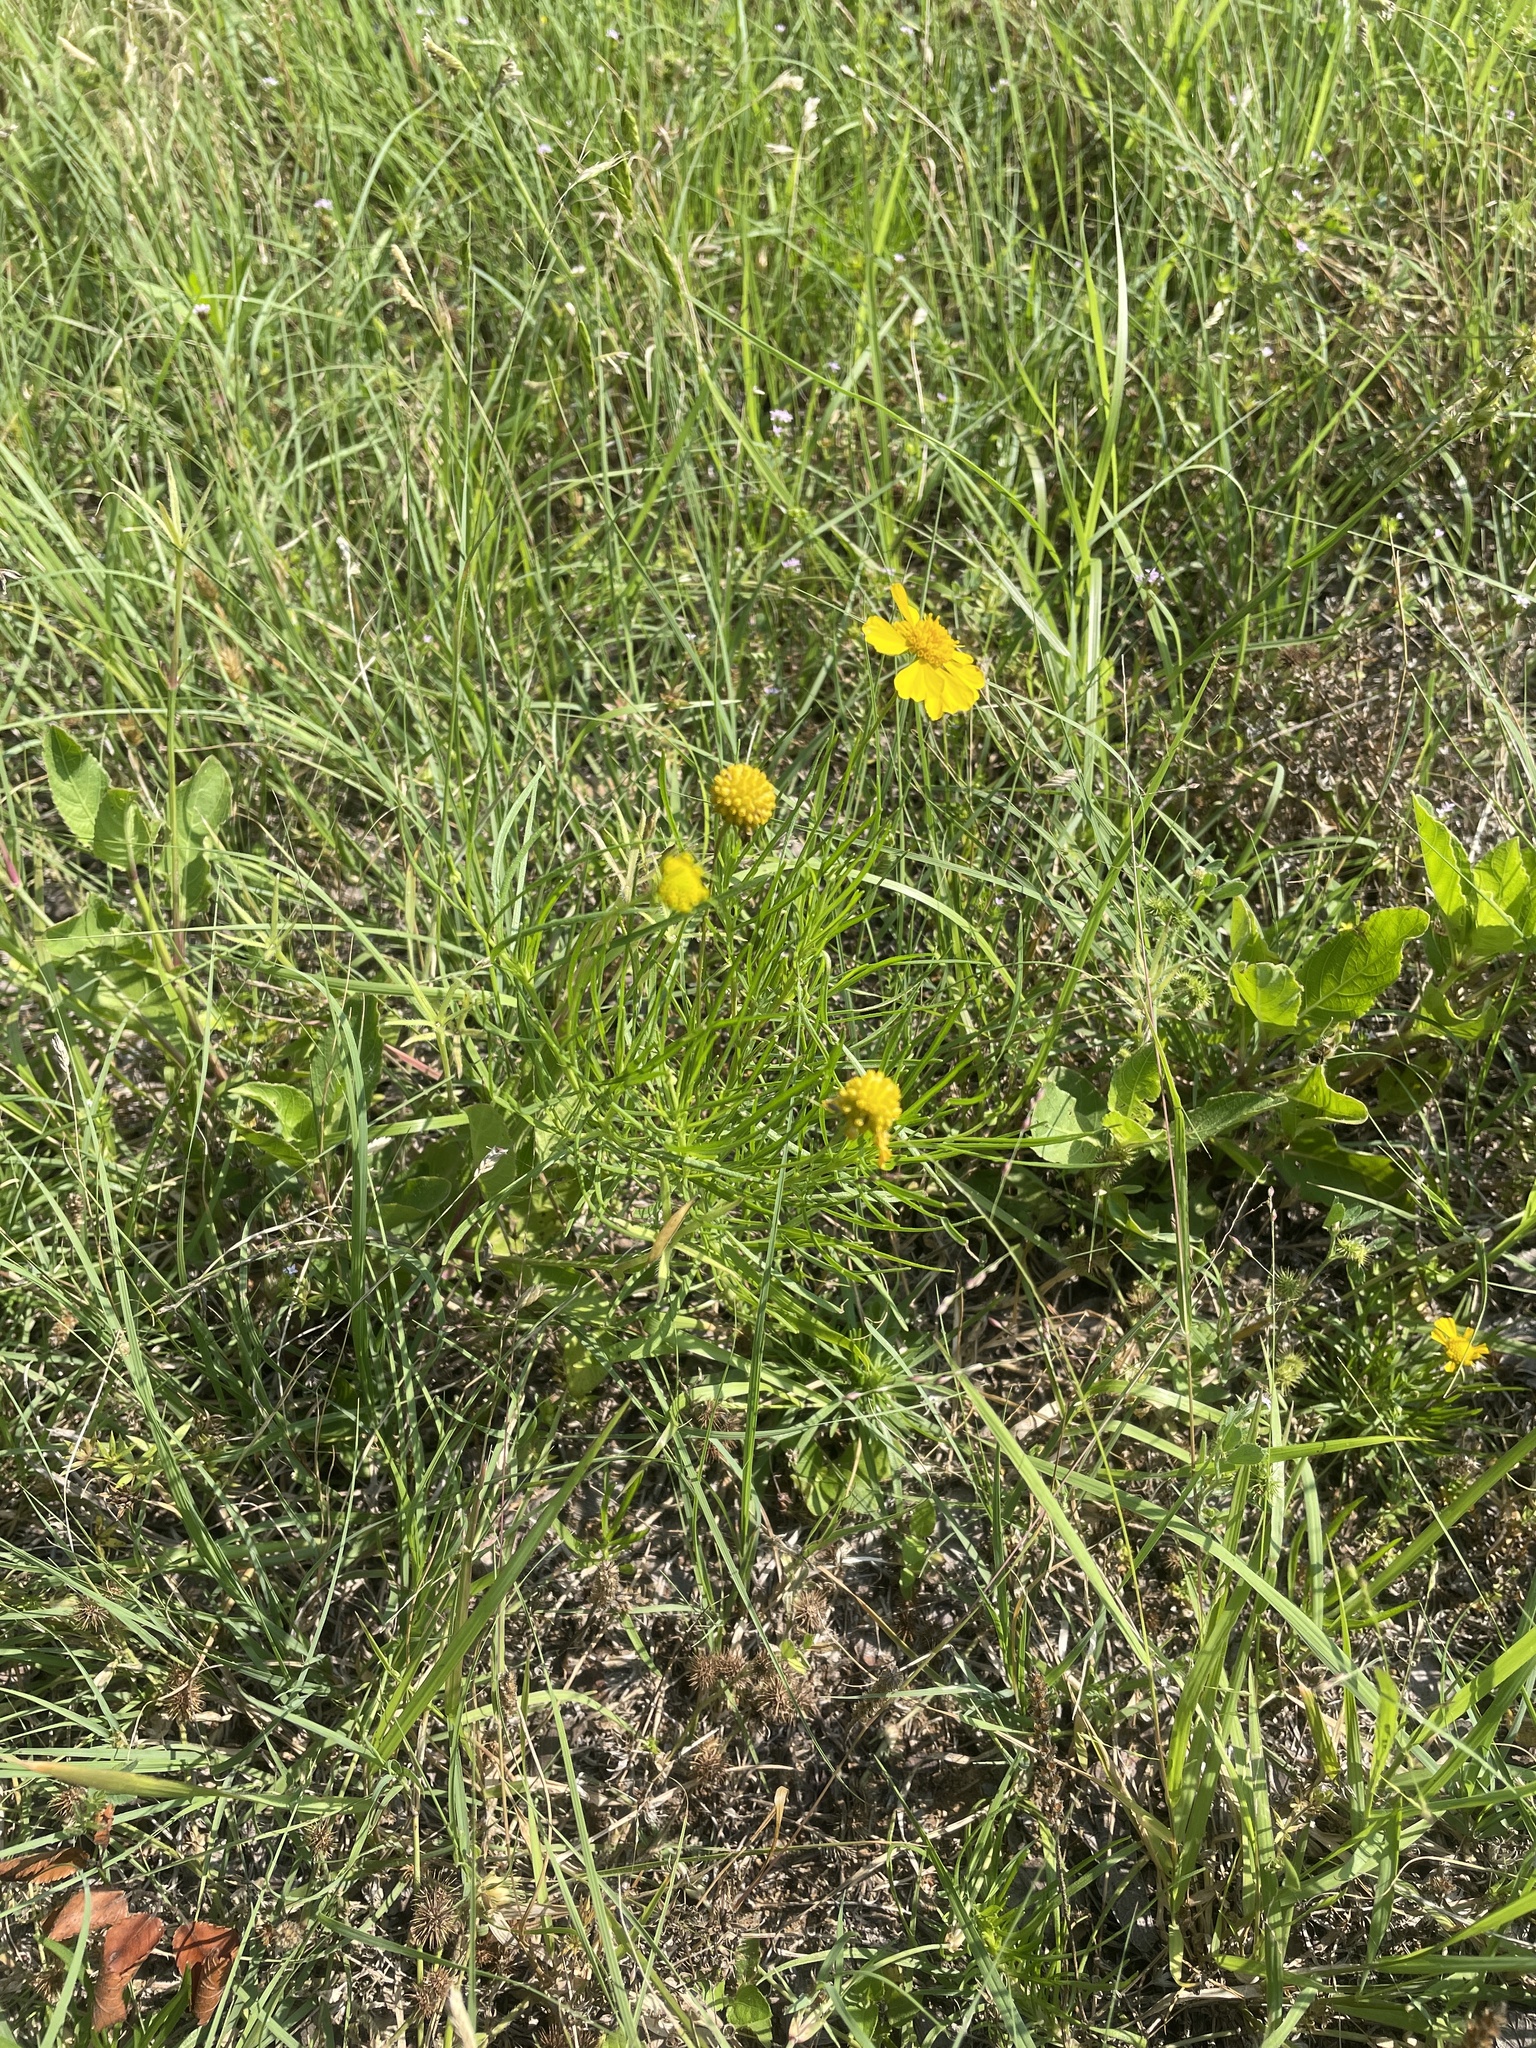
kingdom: Plantae
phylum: Tracheophyta
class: Magnoliopsida
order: Asterales
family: Asteraceae
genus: Helenium
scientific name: Helenium amarum
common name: Bitter sneezeweed
